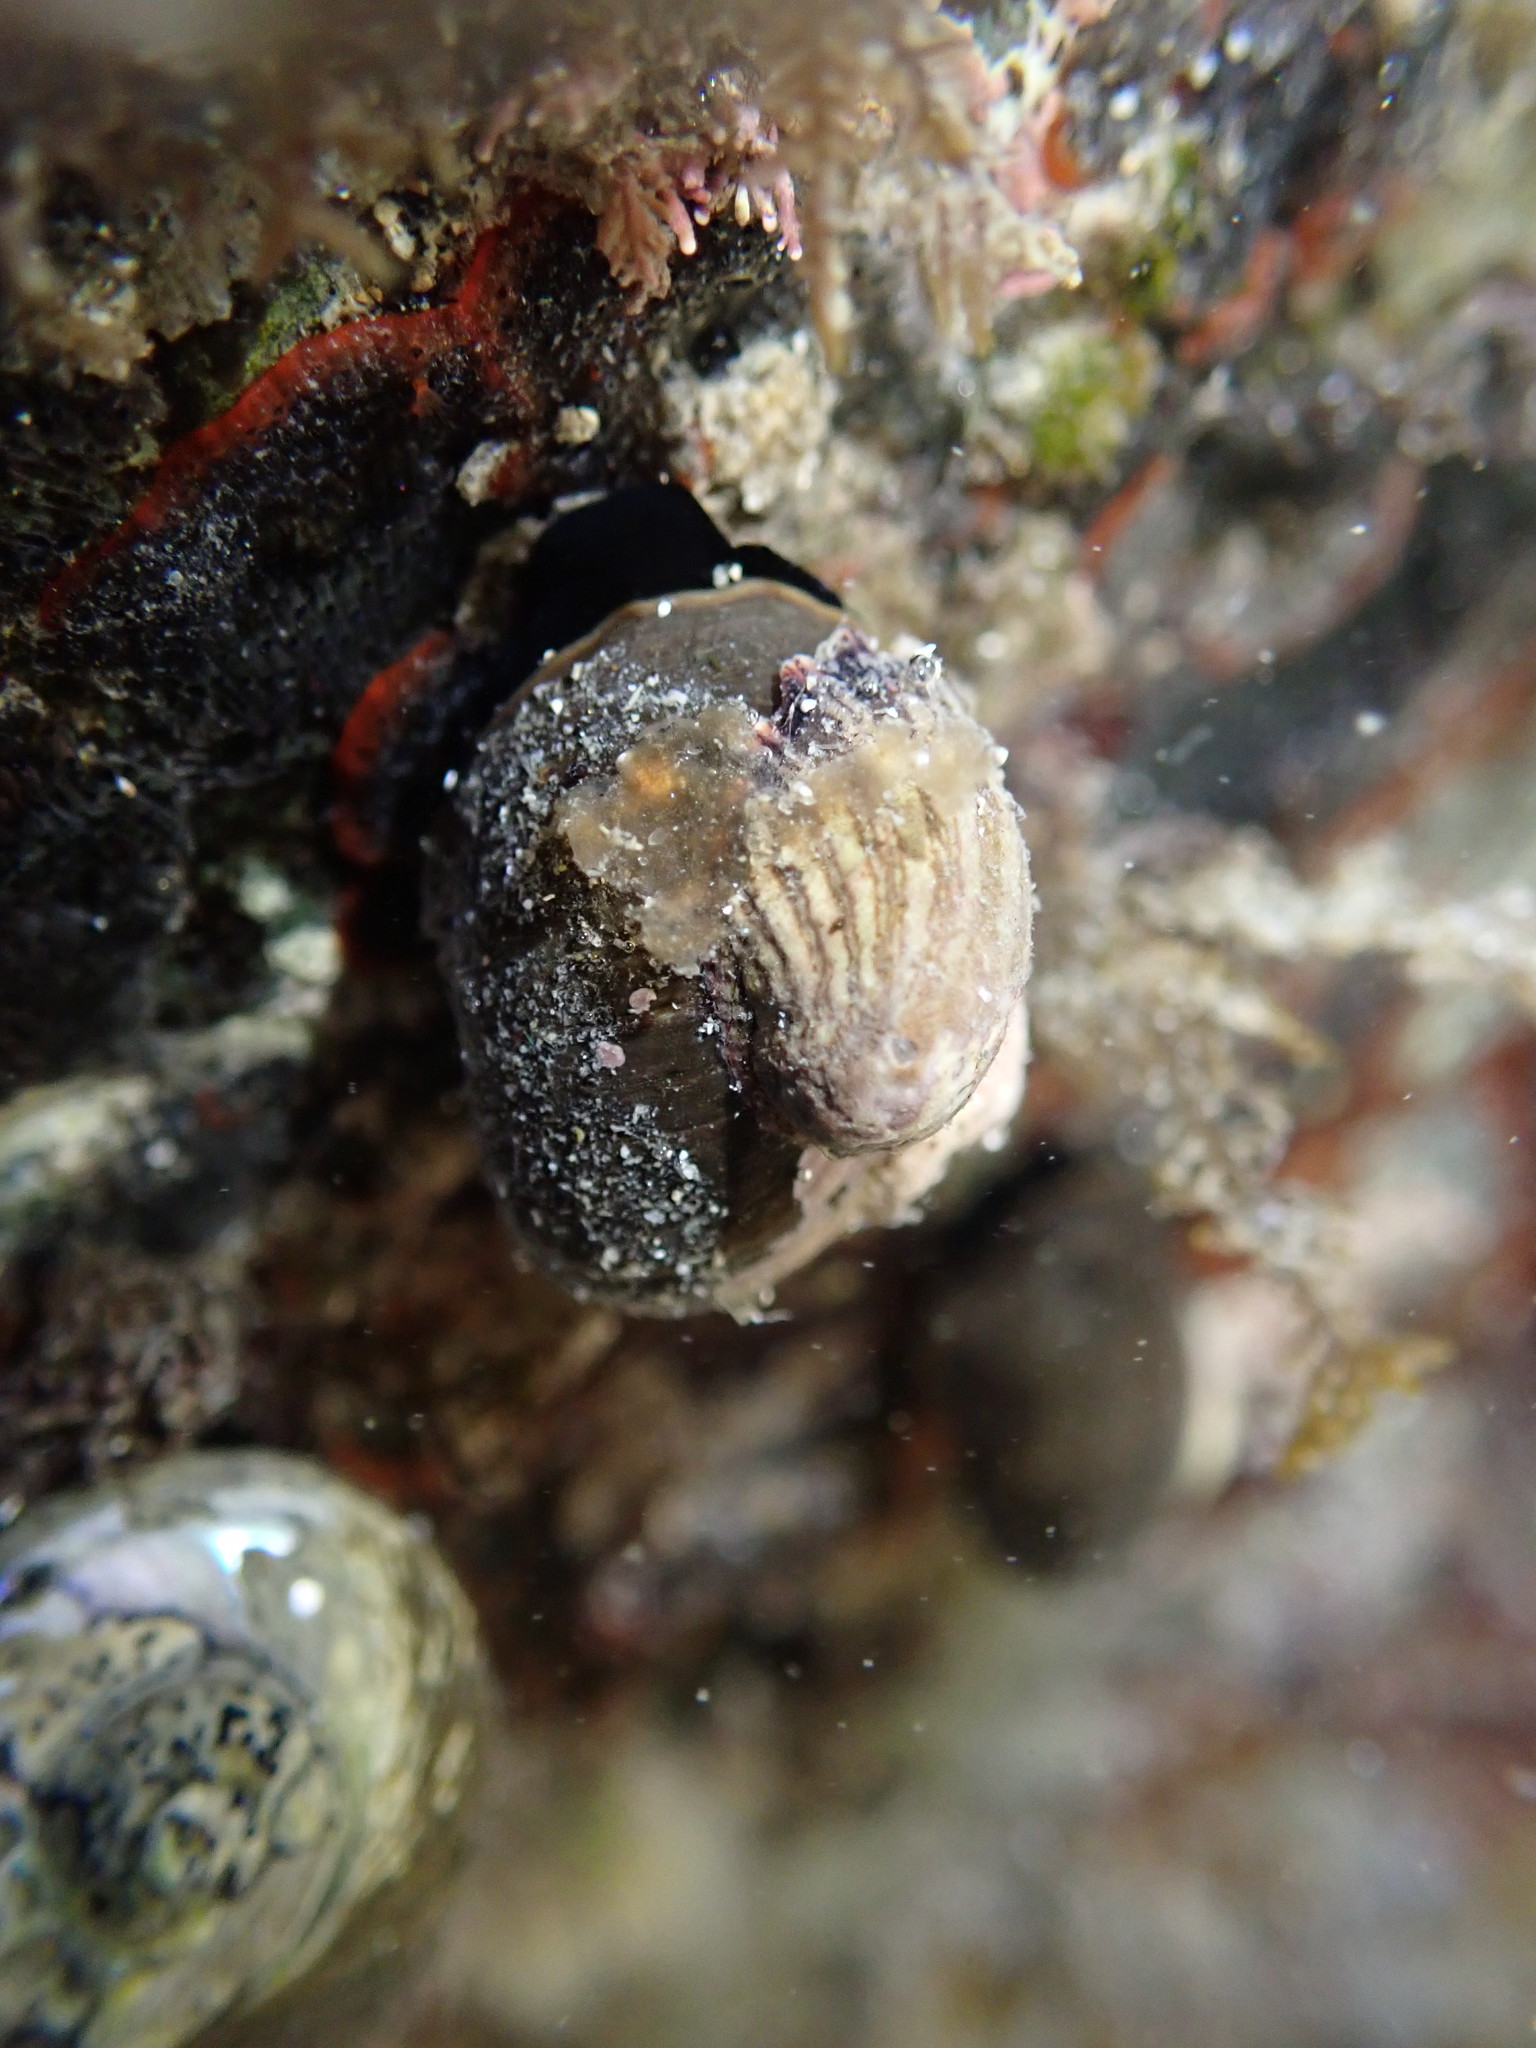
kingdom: Animalia
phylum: Mollusca
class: Gastropoda
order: Littorinimorpha
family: Calyptraeidae
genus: Maoricrypta
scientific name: Maoricrypta costata
